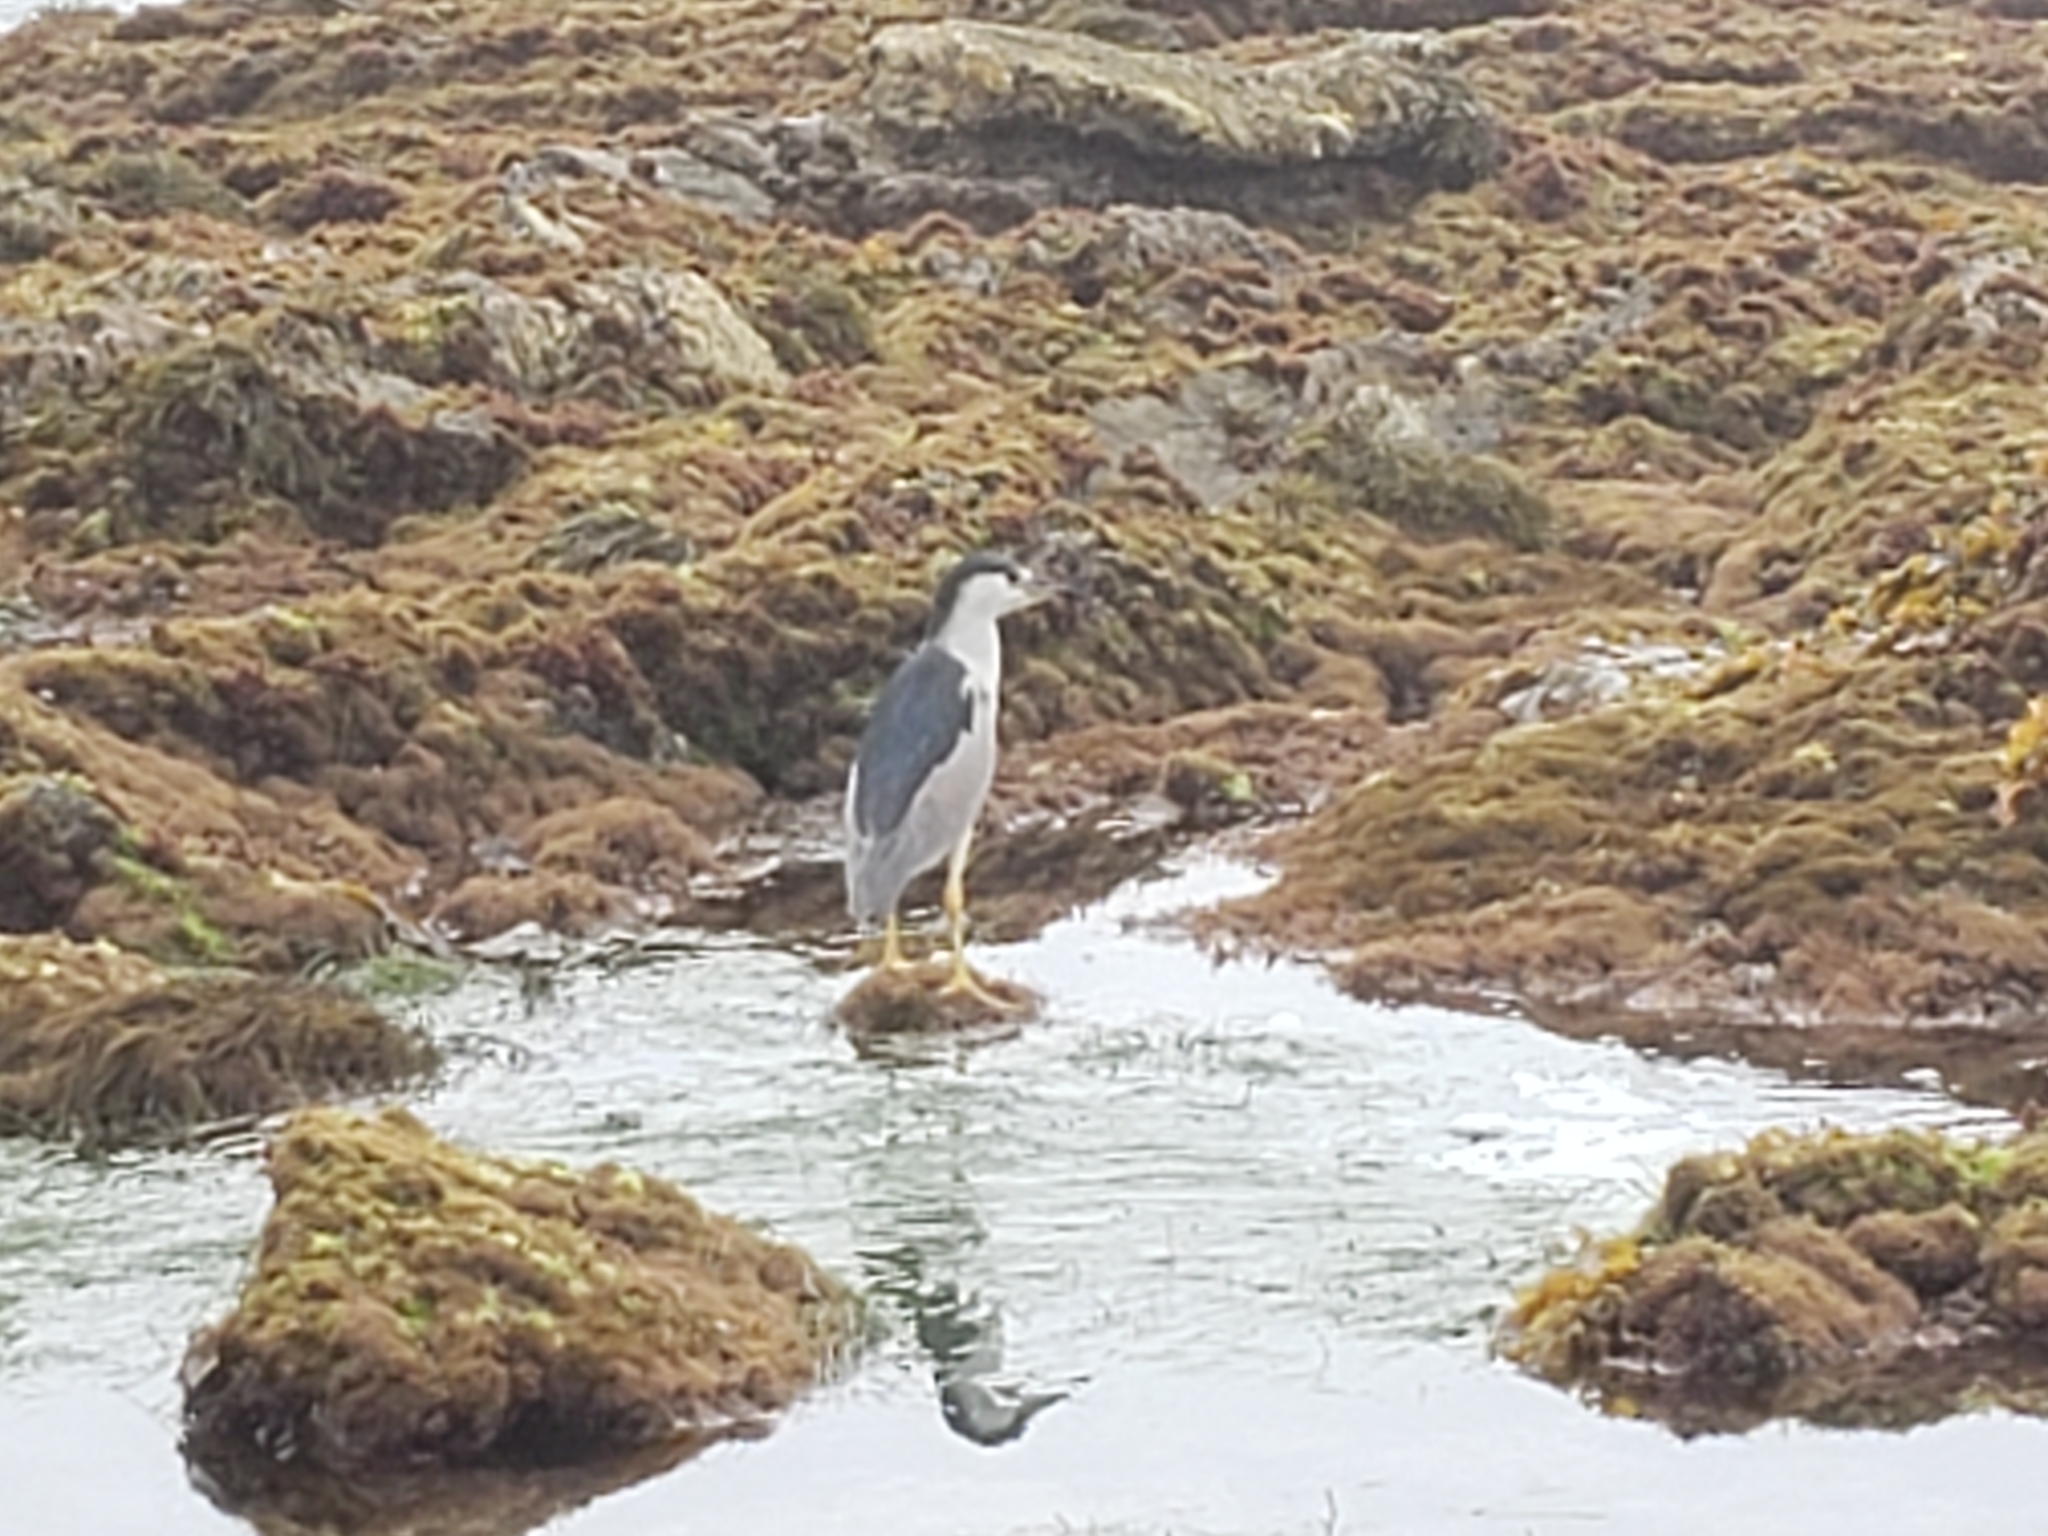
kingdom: Animalia
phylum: Chordata
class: Aves
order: Pelecaniformes
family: Ardeidae
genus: Nycticorax
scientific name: Nycticorax nycticorax
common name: Black-crowned night heron
